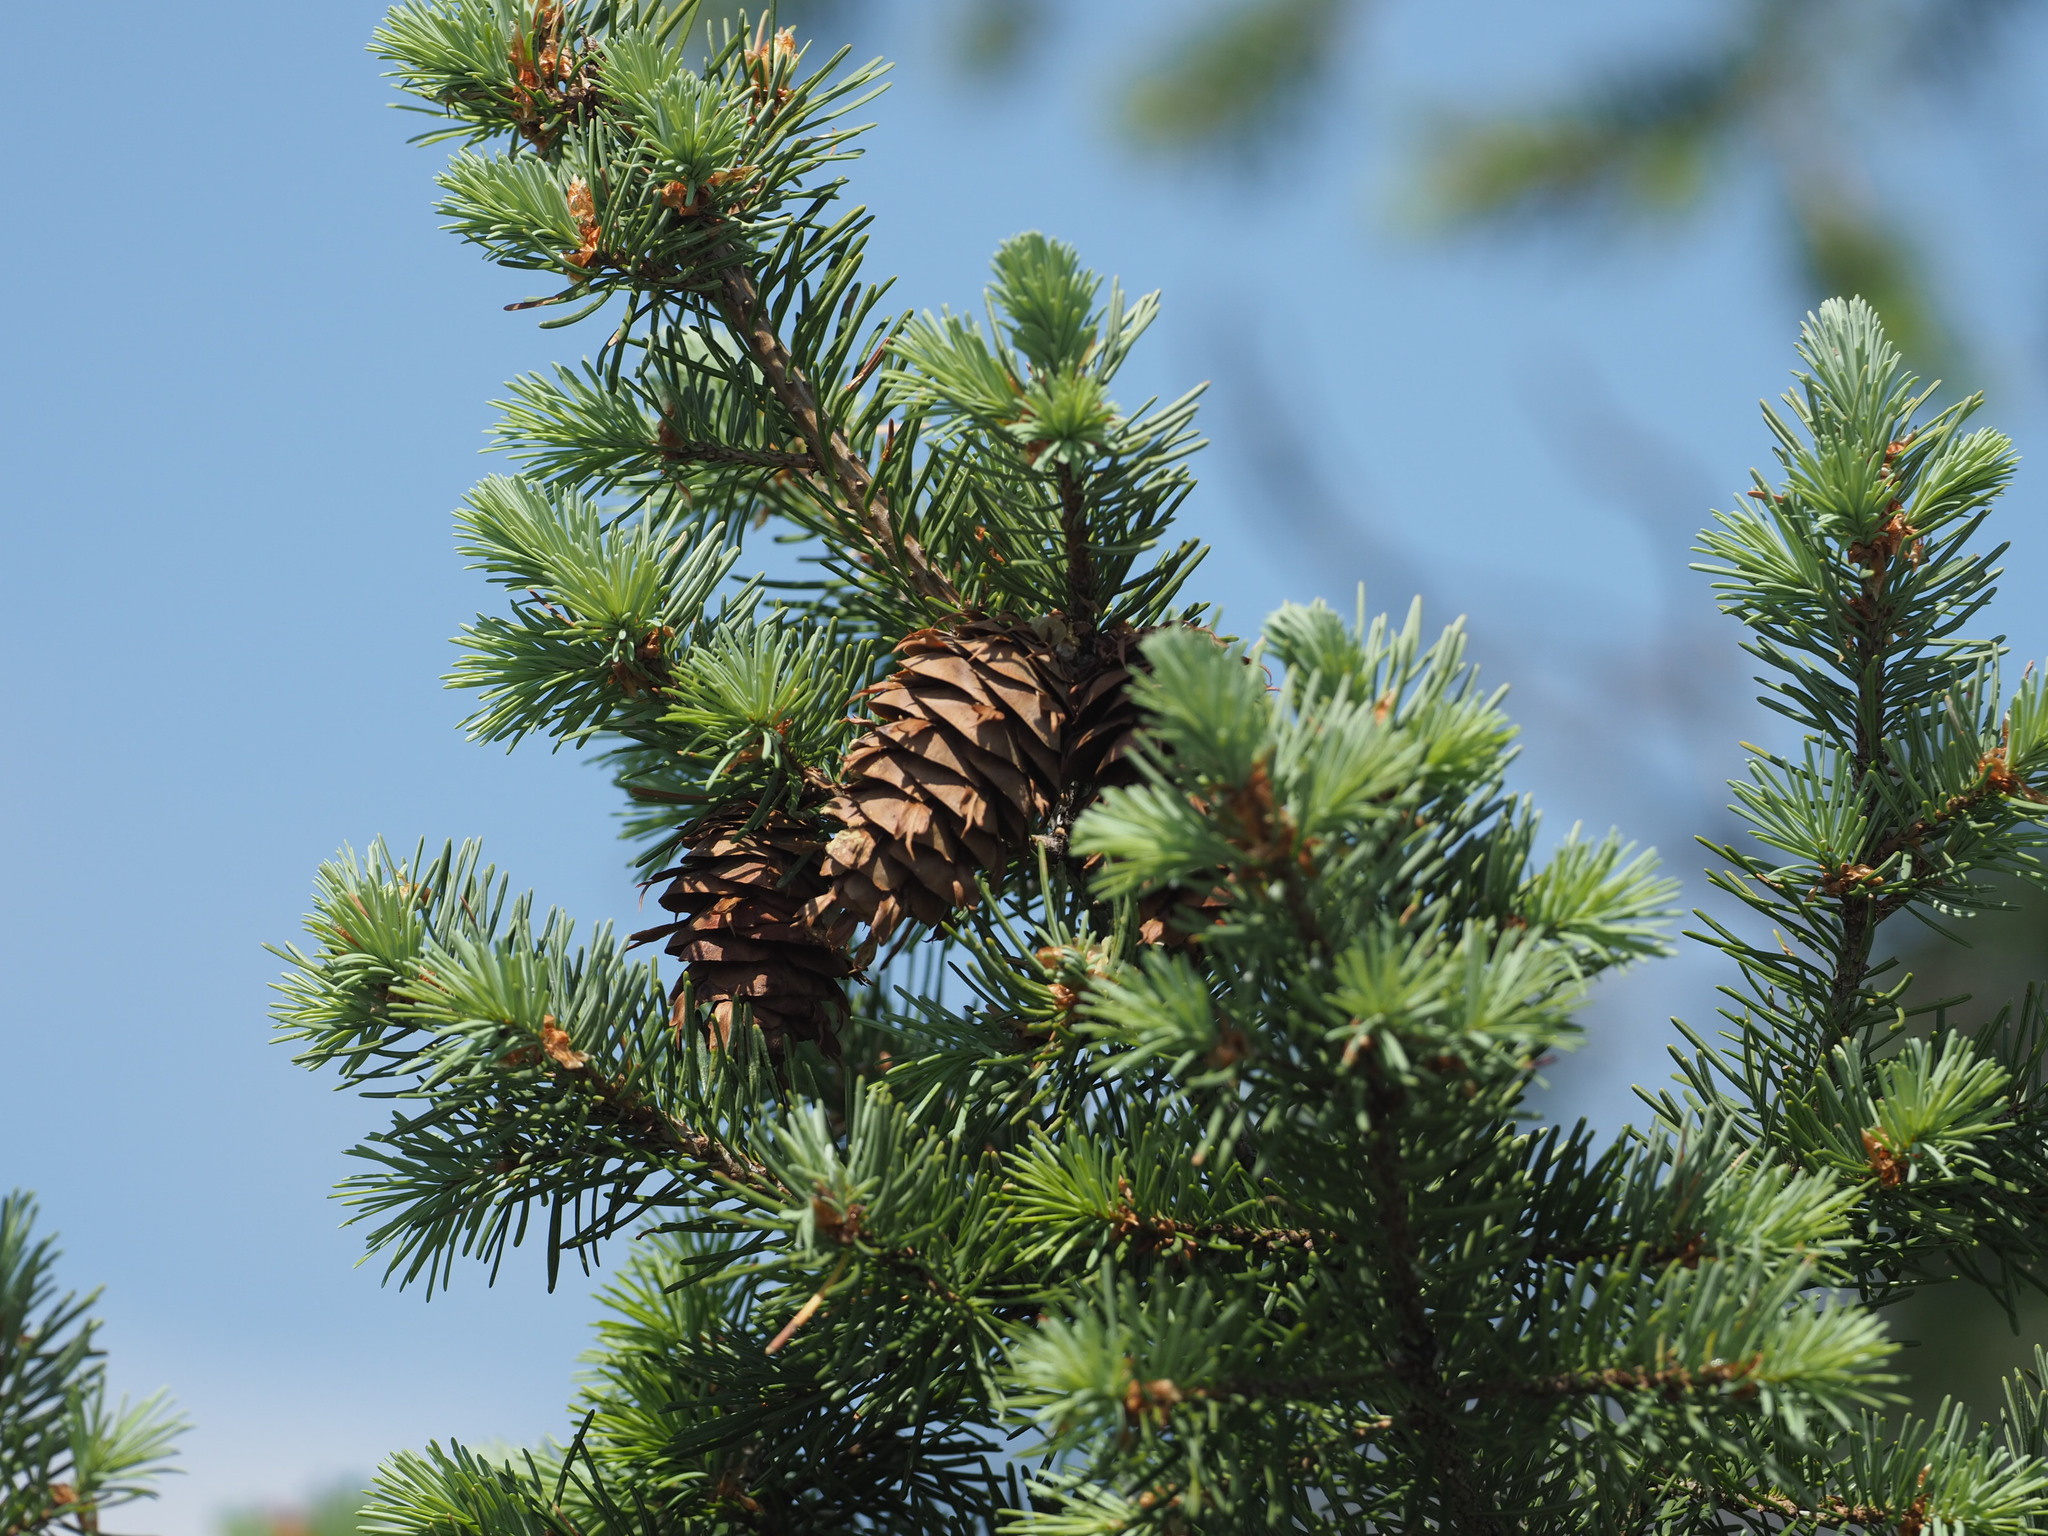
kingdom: Plantae
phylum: Tracheophyta
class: Pinopsida
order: Pinales
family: Pinaceae
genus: Pseudotsuga
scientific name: Pseudotsuga menziesii
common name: Douglas fir
